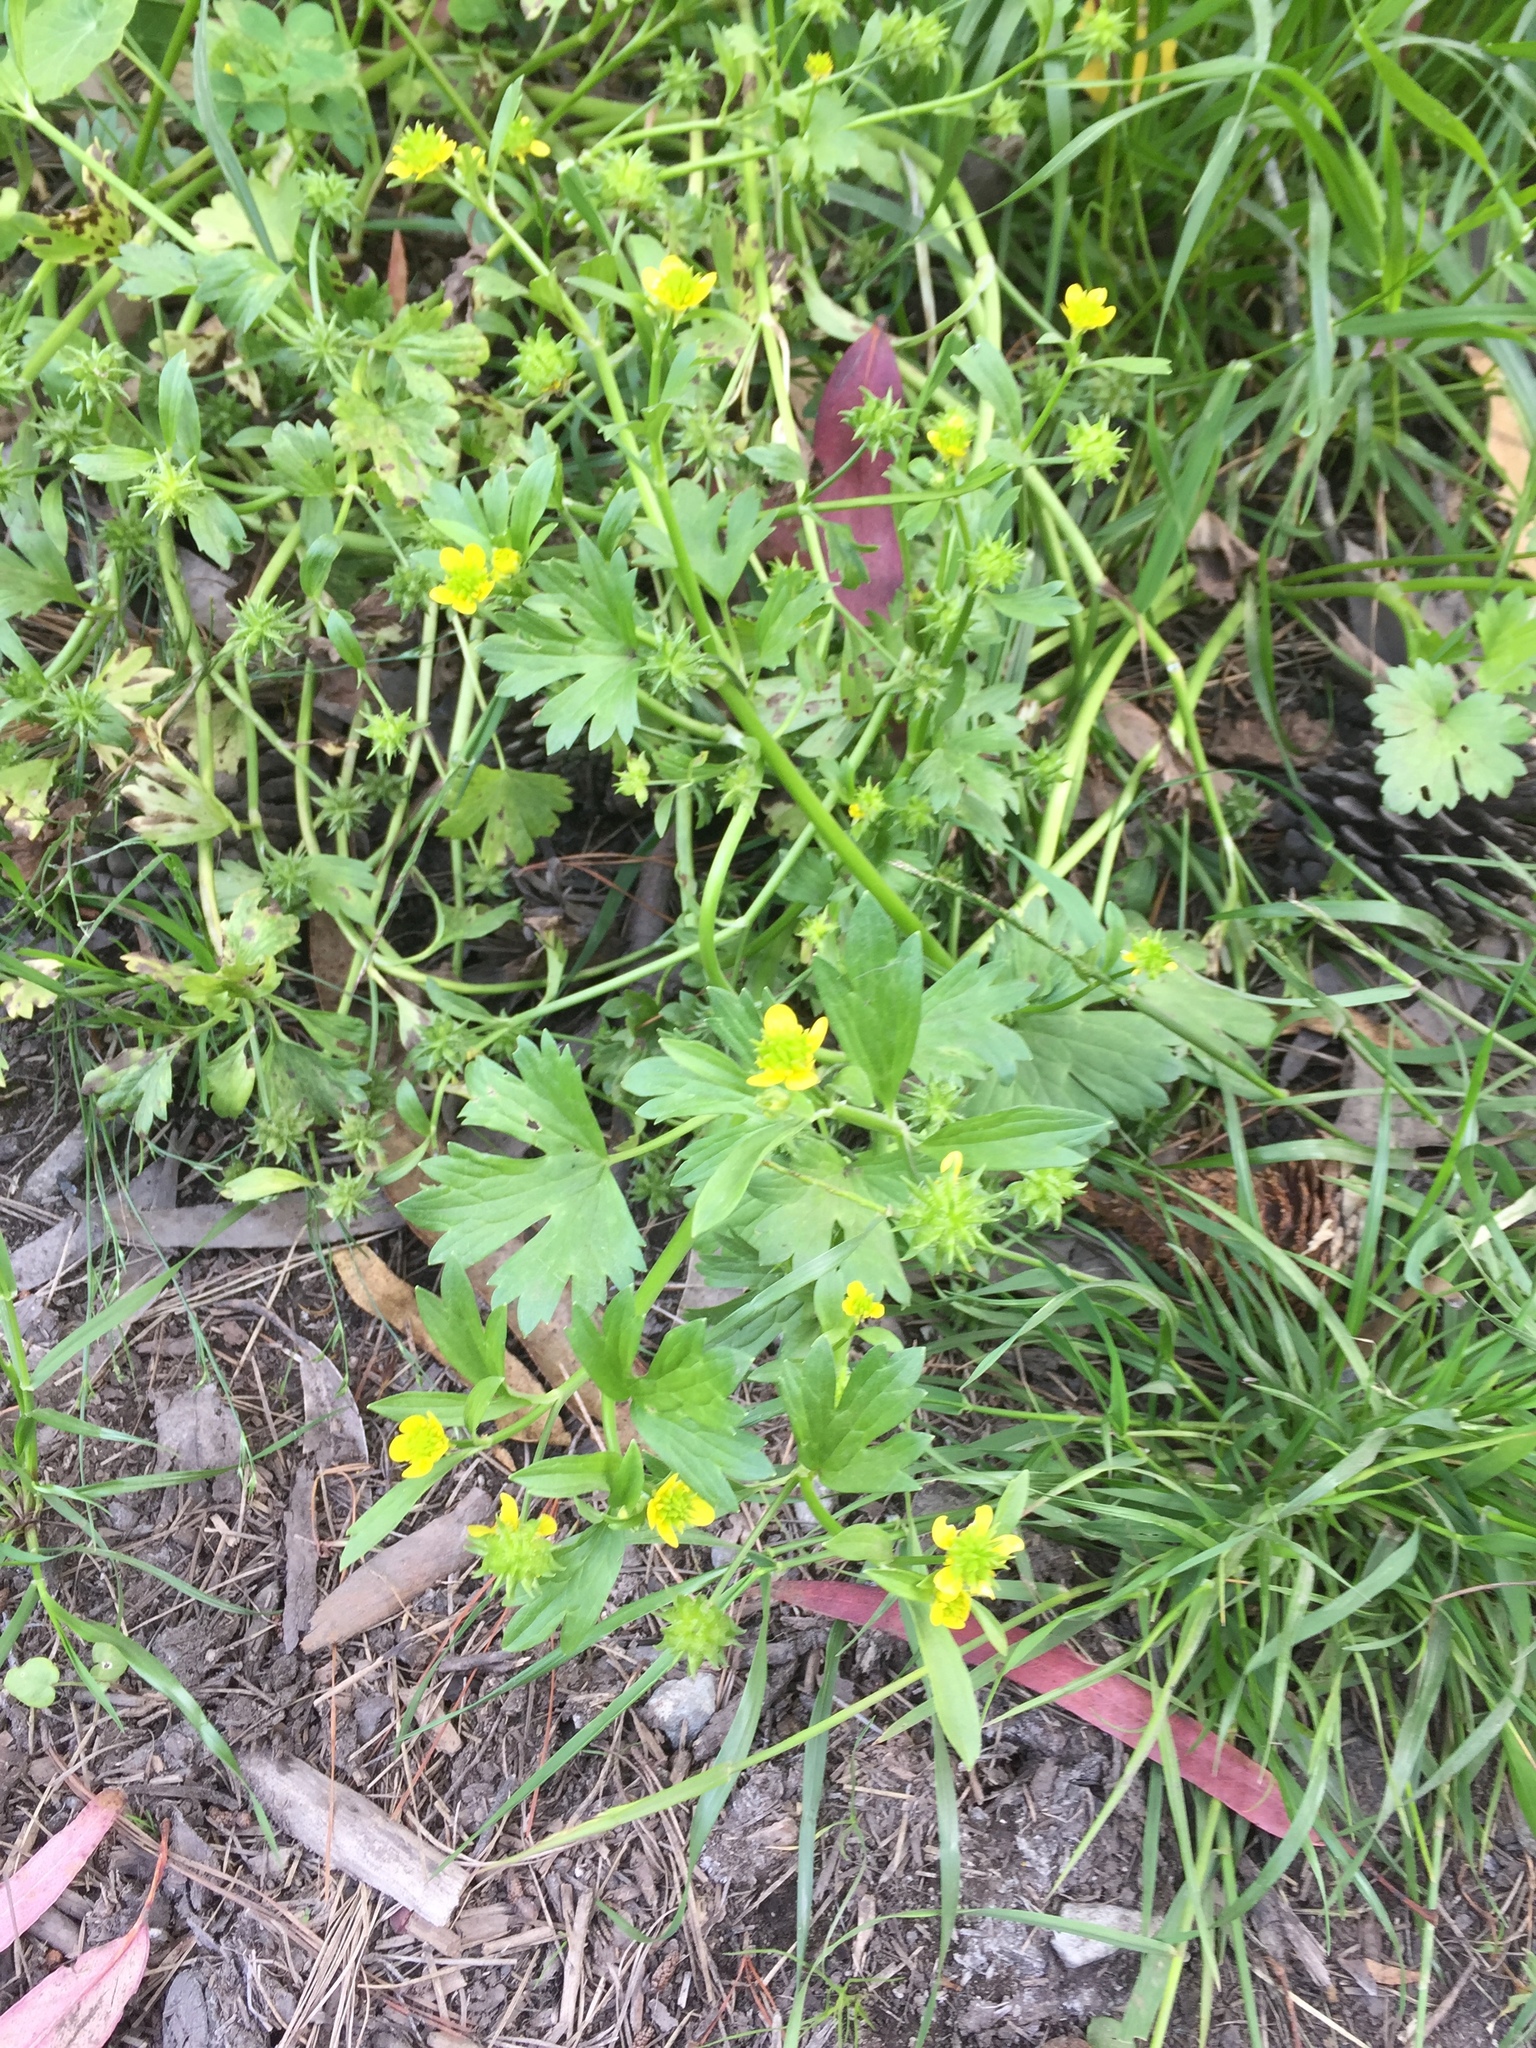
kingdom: Plantae
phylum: Tracheophyta
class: Magnoliopsida
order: Ranunculales
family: Ranunculaceae
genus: Ranunculus
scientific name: Ranunculus muricatus
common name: Rough-fruited buttercup
